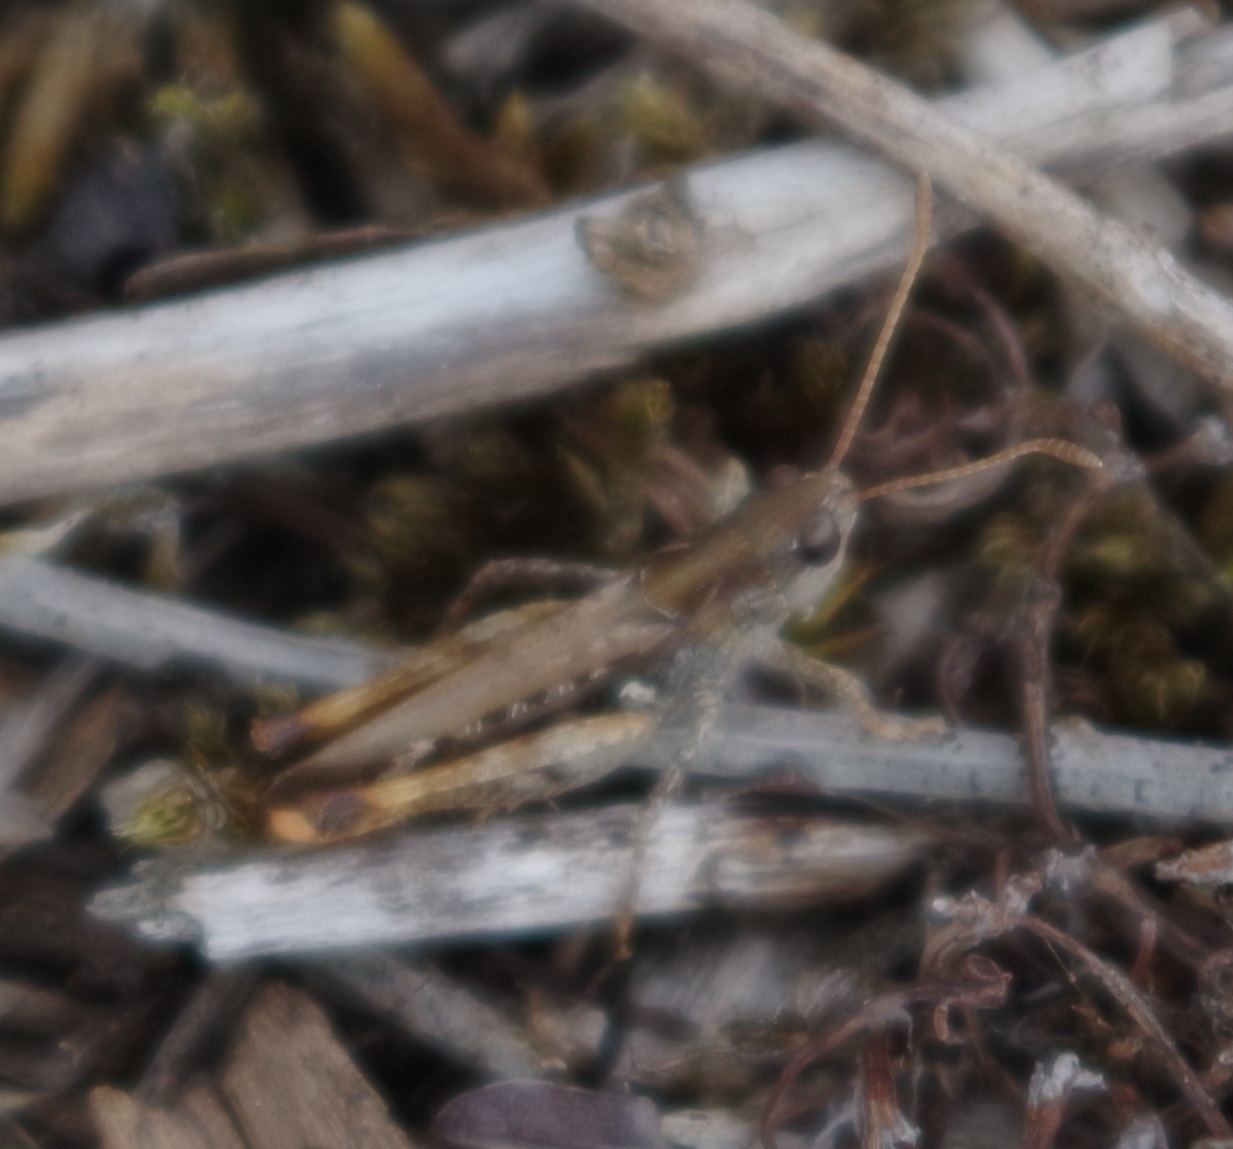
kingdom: Animalia
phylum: Arthropoda
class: Insecta
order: Orthoptera
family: Acrididae
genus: Myrmeleotettix
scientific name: Myrmeleotettix maculatus
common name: Mottled grasshopper
